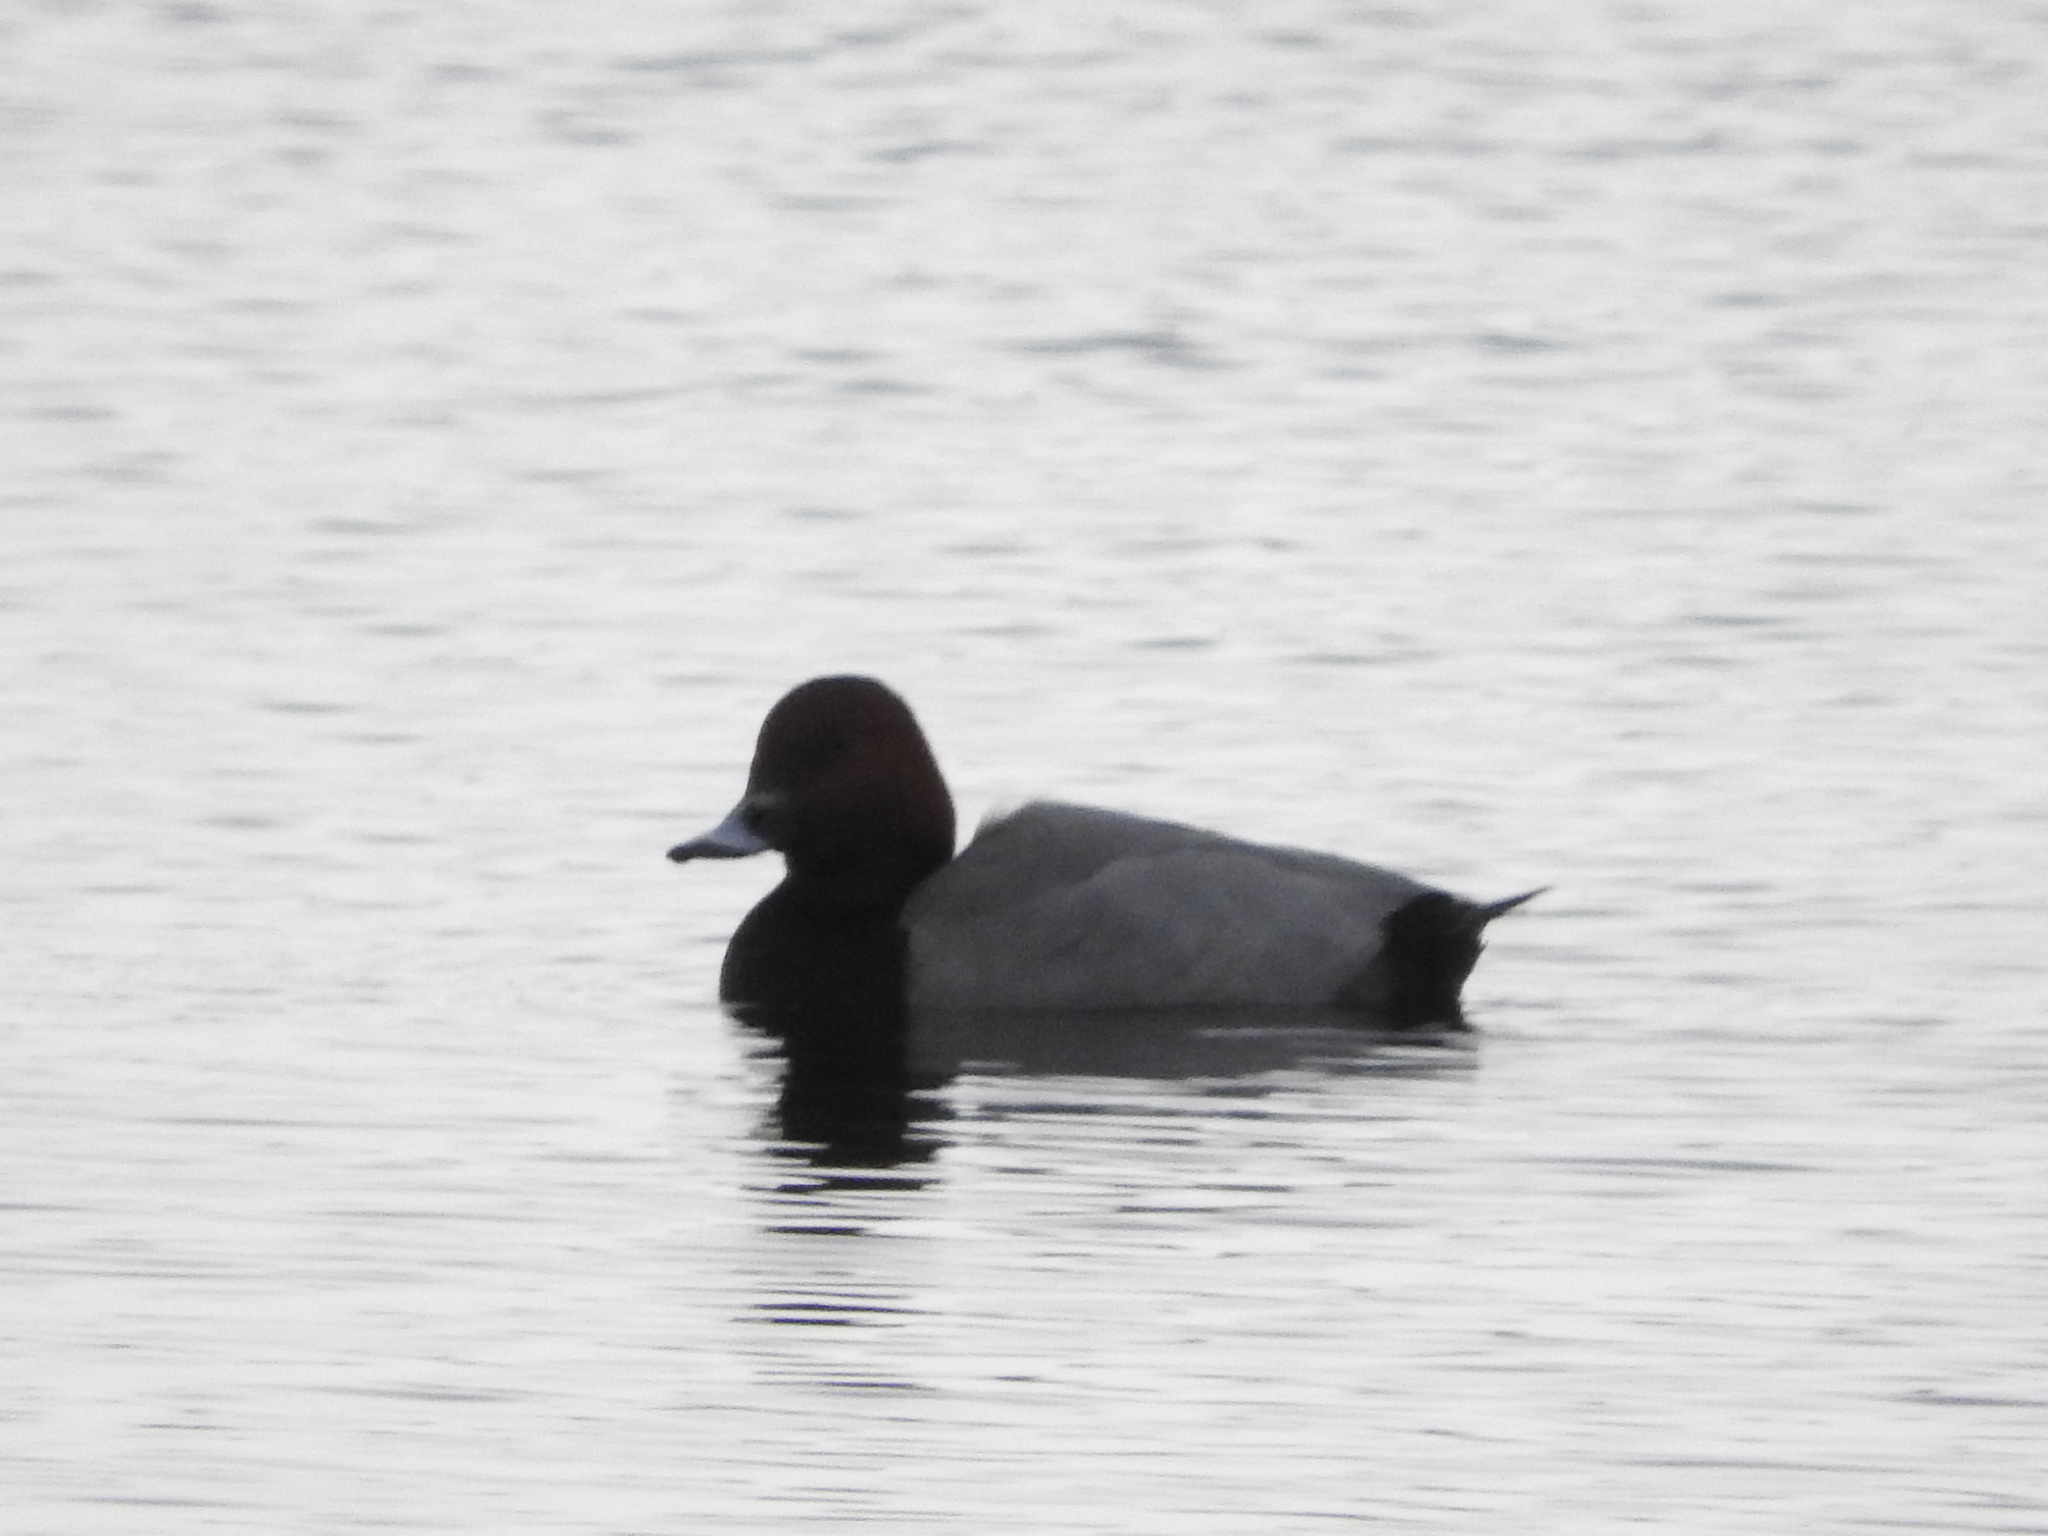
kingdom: Animalia
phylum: Chordata
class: Aves
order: Anseriformes
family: Anatidae
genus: Aythya
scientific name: Aythya ferina
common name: Common pochard
